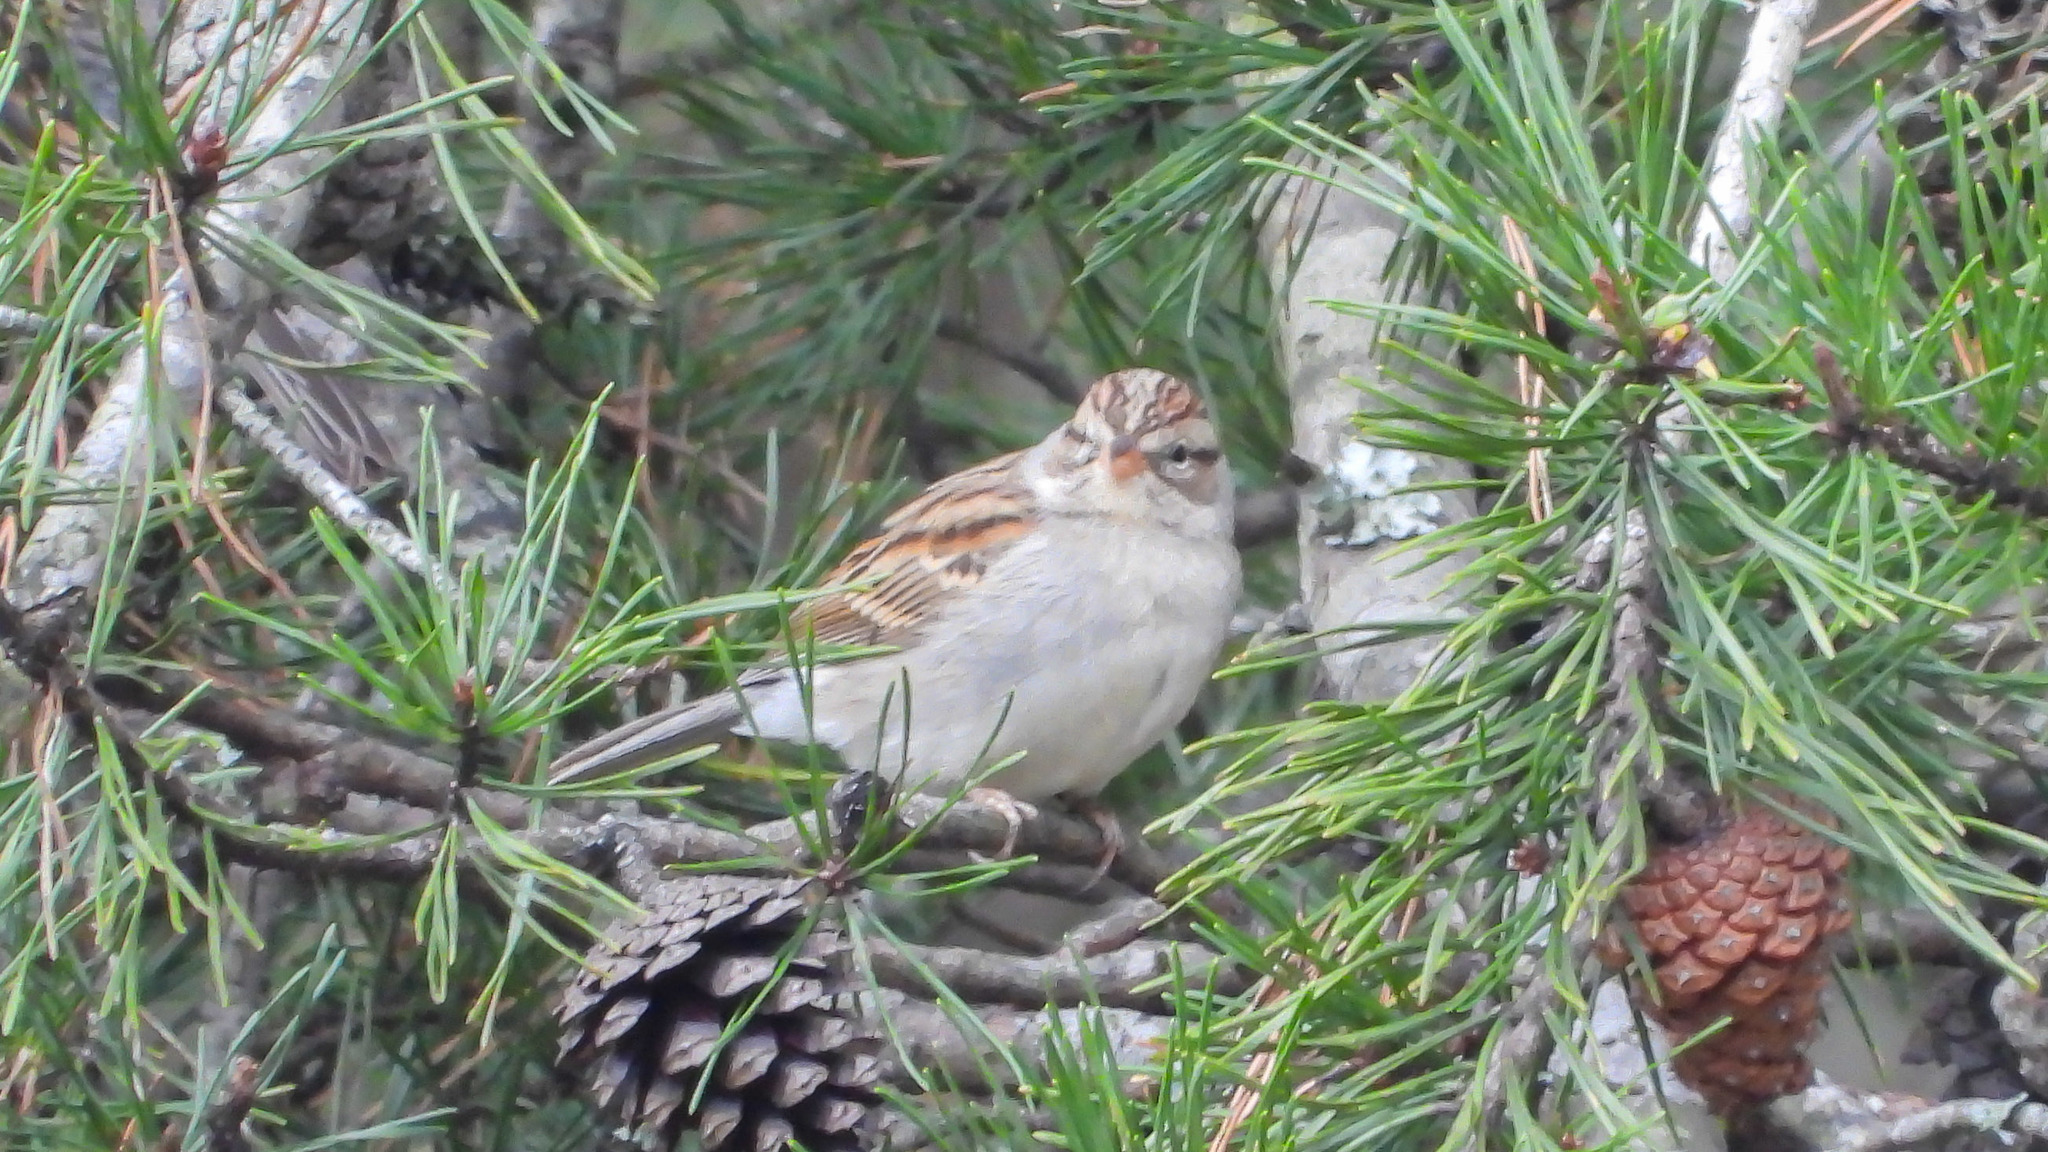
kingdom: Animalia
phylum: Chordata
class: Aves
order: Passeriformes
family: Passerellidae
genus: Spizella
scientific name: Spizella passerina
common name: Chipping sparrow
